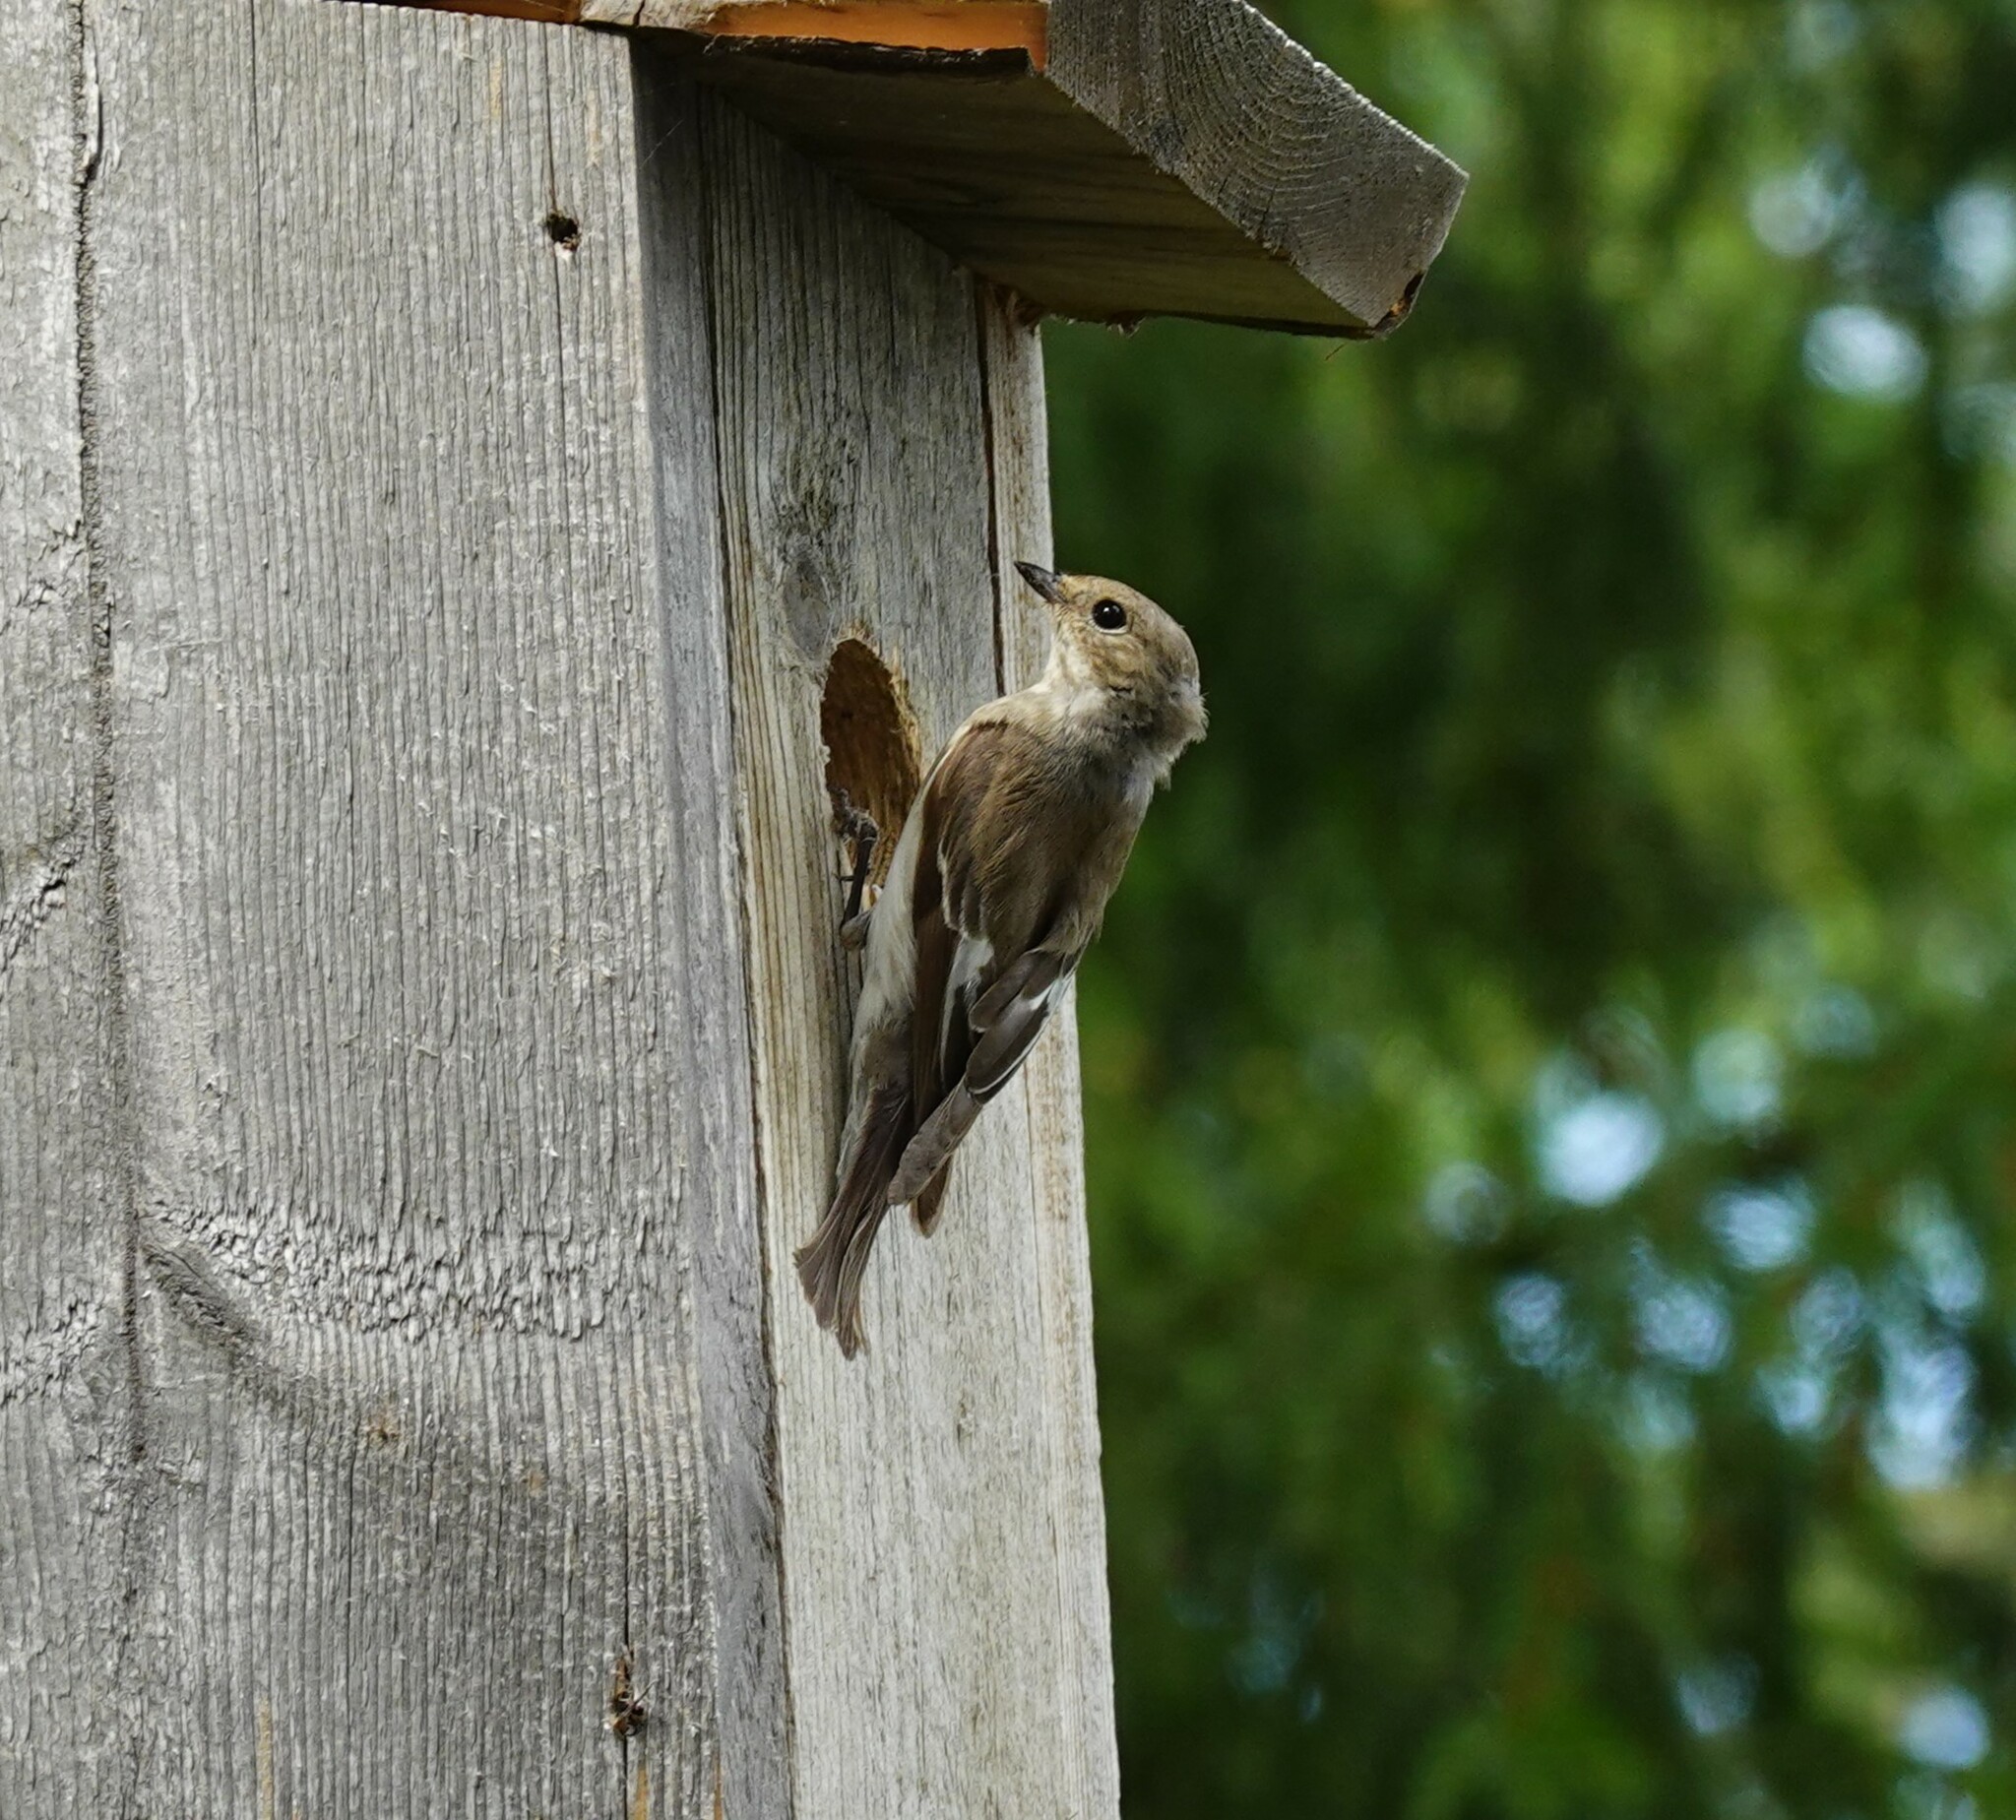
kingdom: Animalia
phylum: Chordata
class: Aves
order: Passeriformes
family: Muscicapidae
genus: Ficedula
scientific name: Ficedula hypoleuca
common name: European pied flycatcher
